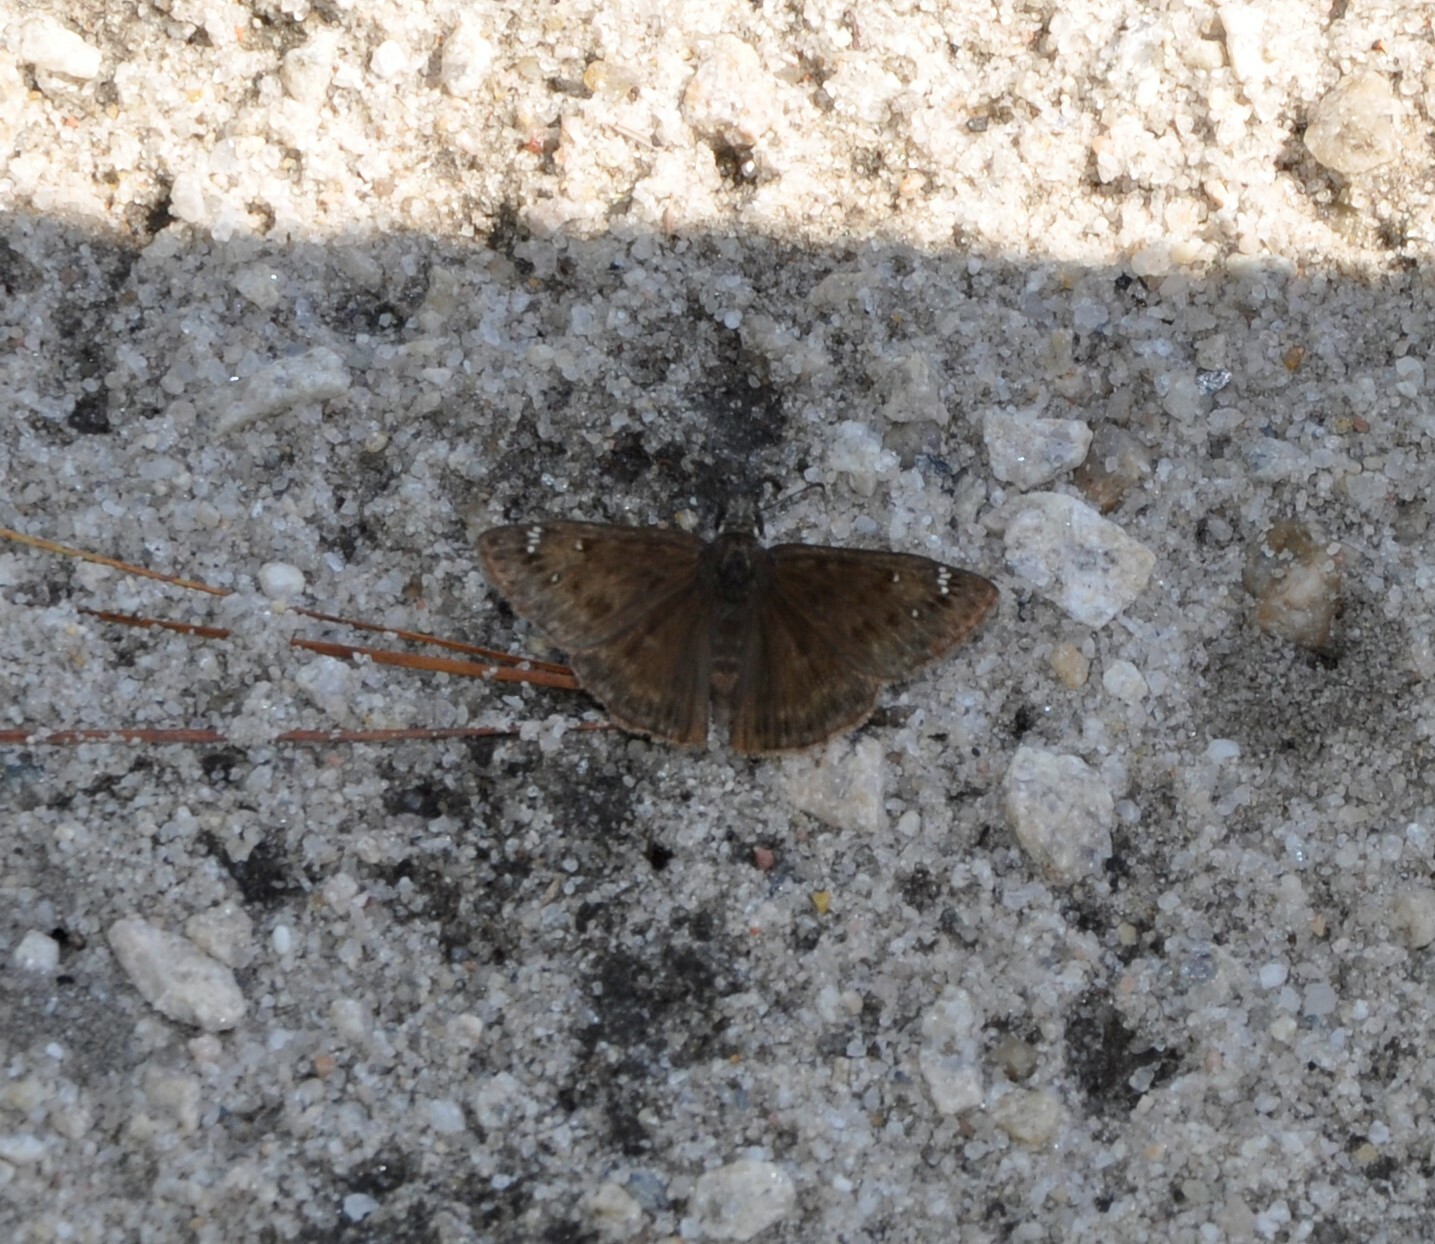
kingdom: Animalia
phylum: Arthropoda
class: Insecta
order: Lepidoptera
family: Hesperiidae
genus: Erynnis
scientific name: Erynnis horatius
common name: Horace's duskywing
